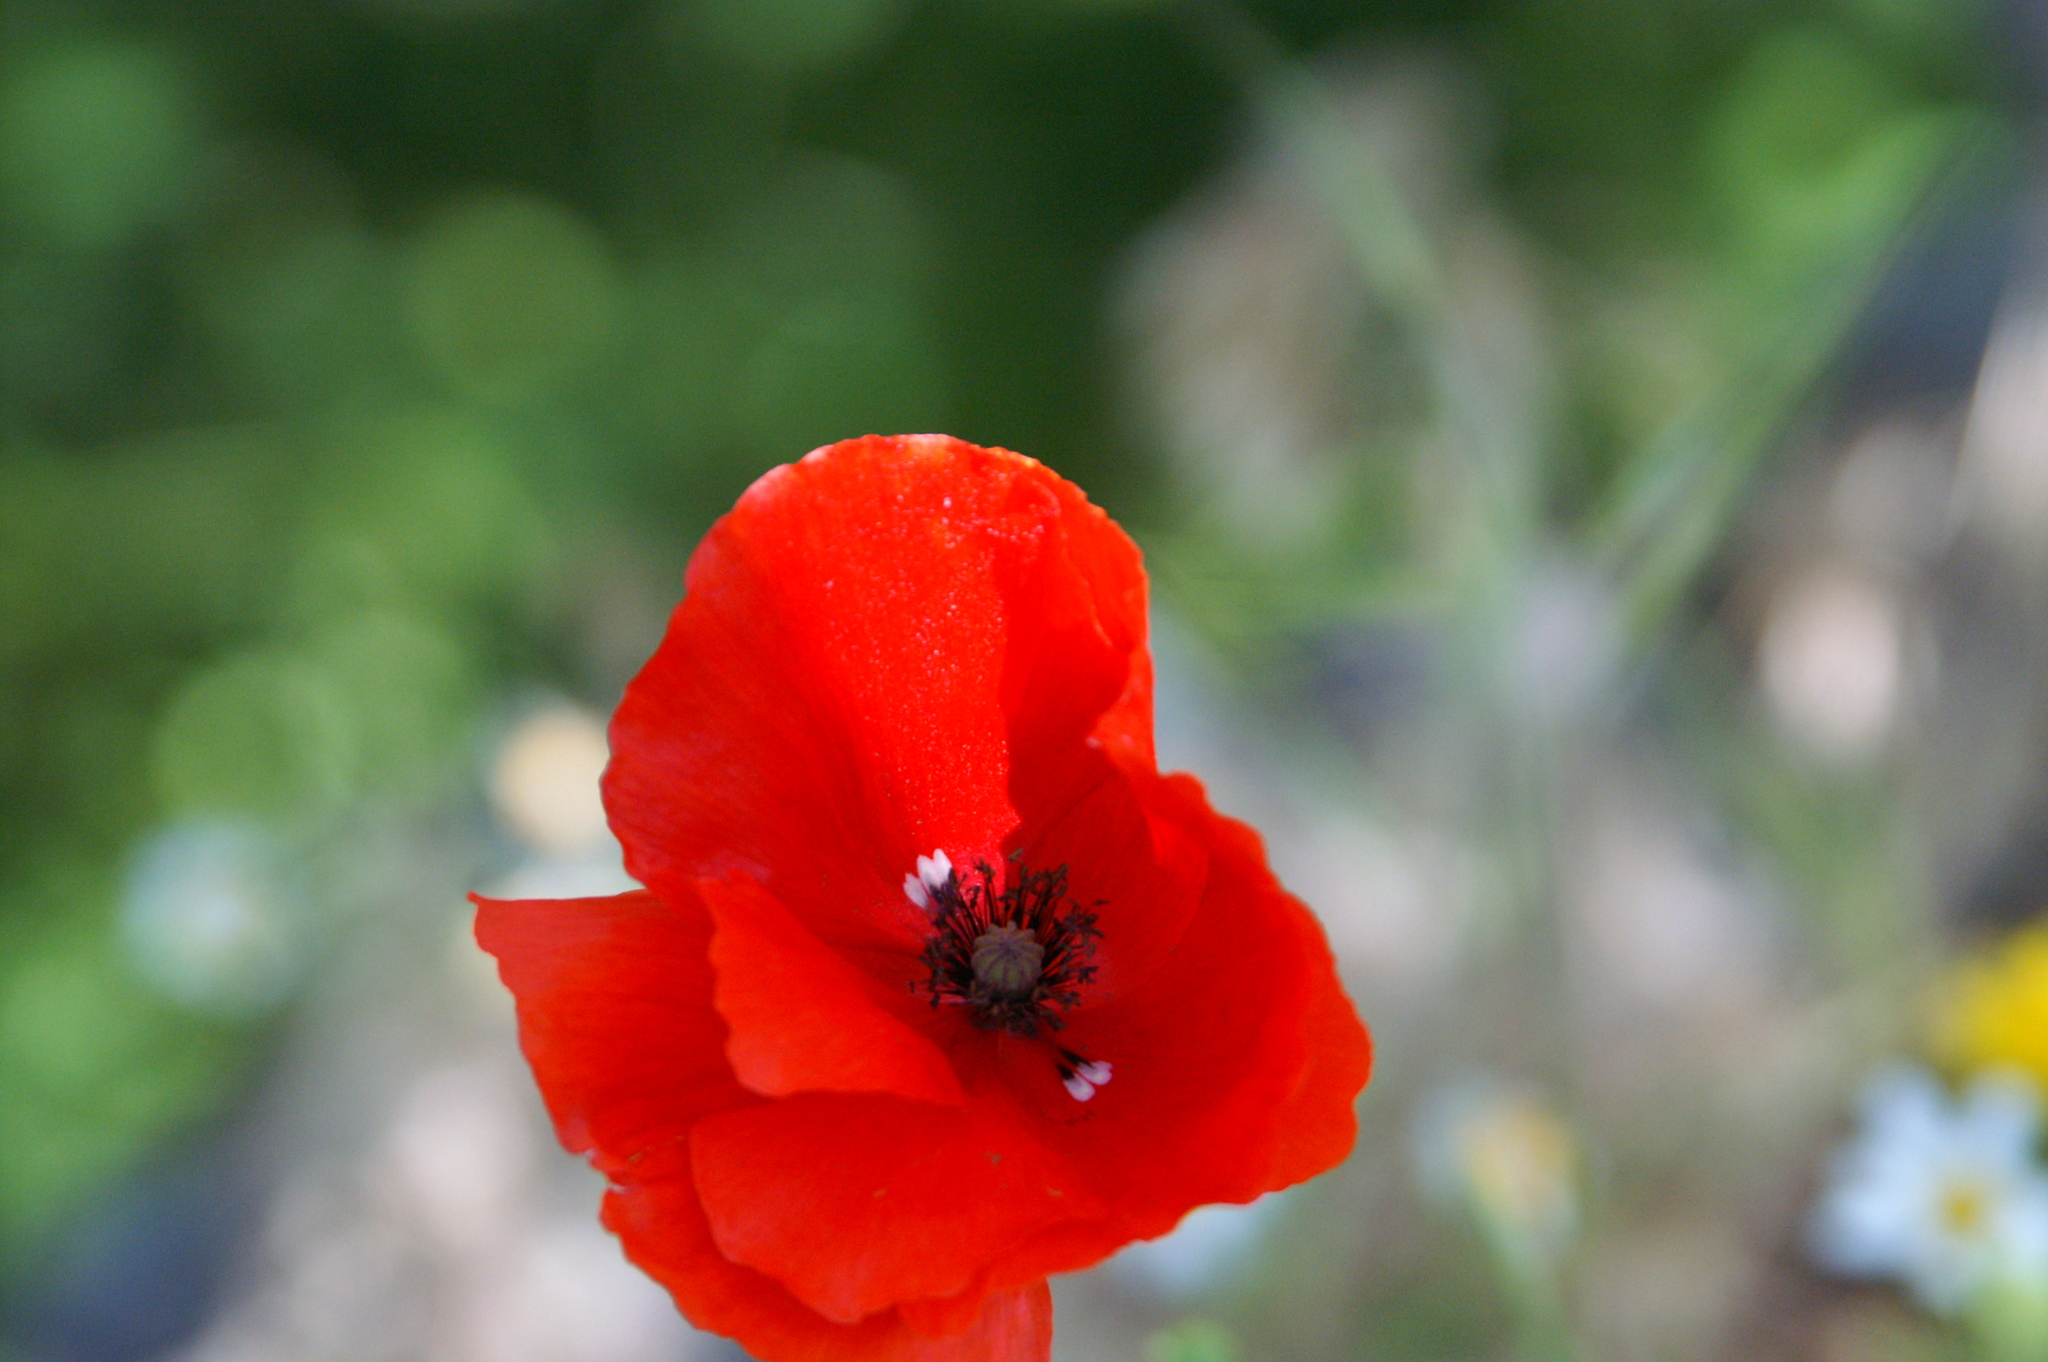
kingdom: Plantae
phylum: Tracheophyta
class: Magnoliopsida
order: Ranunculales
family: Papaveraceae
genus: Papaver
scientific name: Papaver rhoeas
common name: Corn poppy
